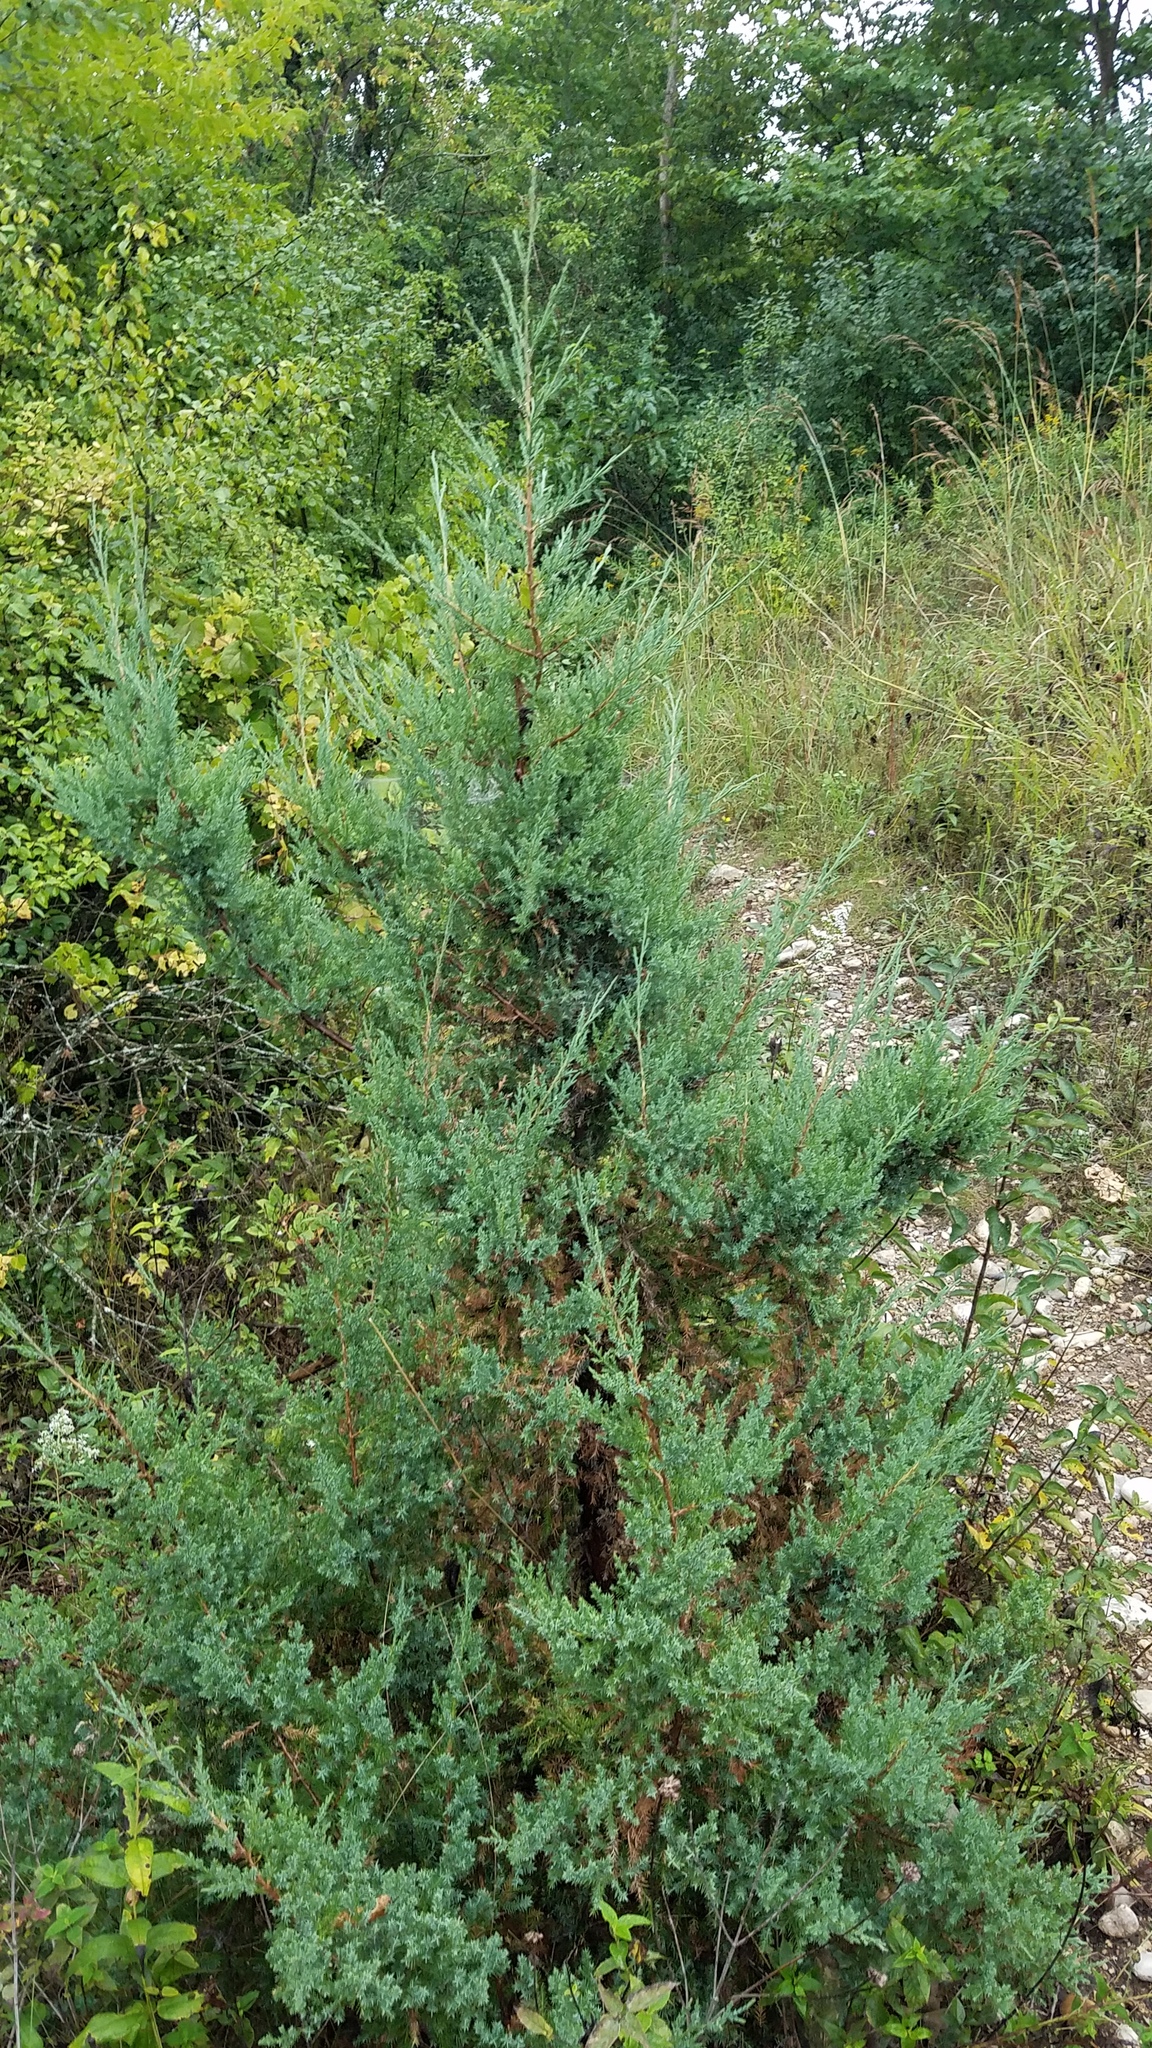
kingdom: Plantae
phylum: Tracheophyta
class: Pinopsida
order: Pinales
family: Cupressaceae
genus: Juniperus
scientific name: Juniperus virginiana
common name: Red juniper
